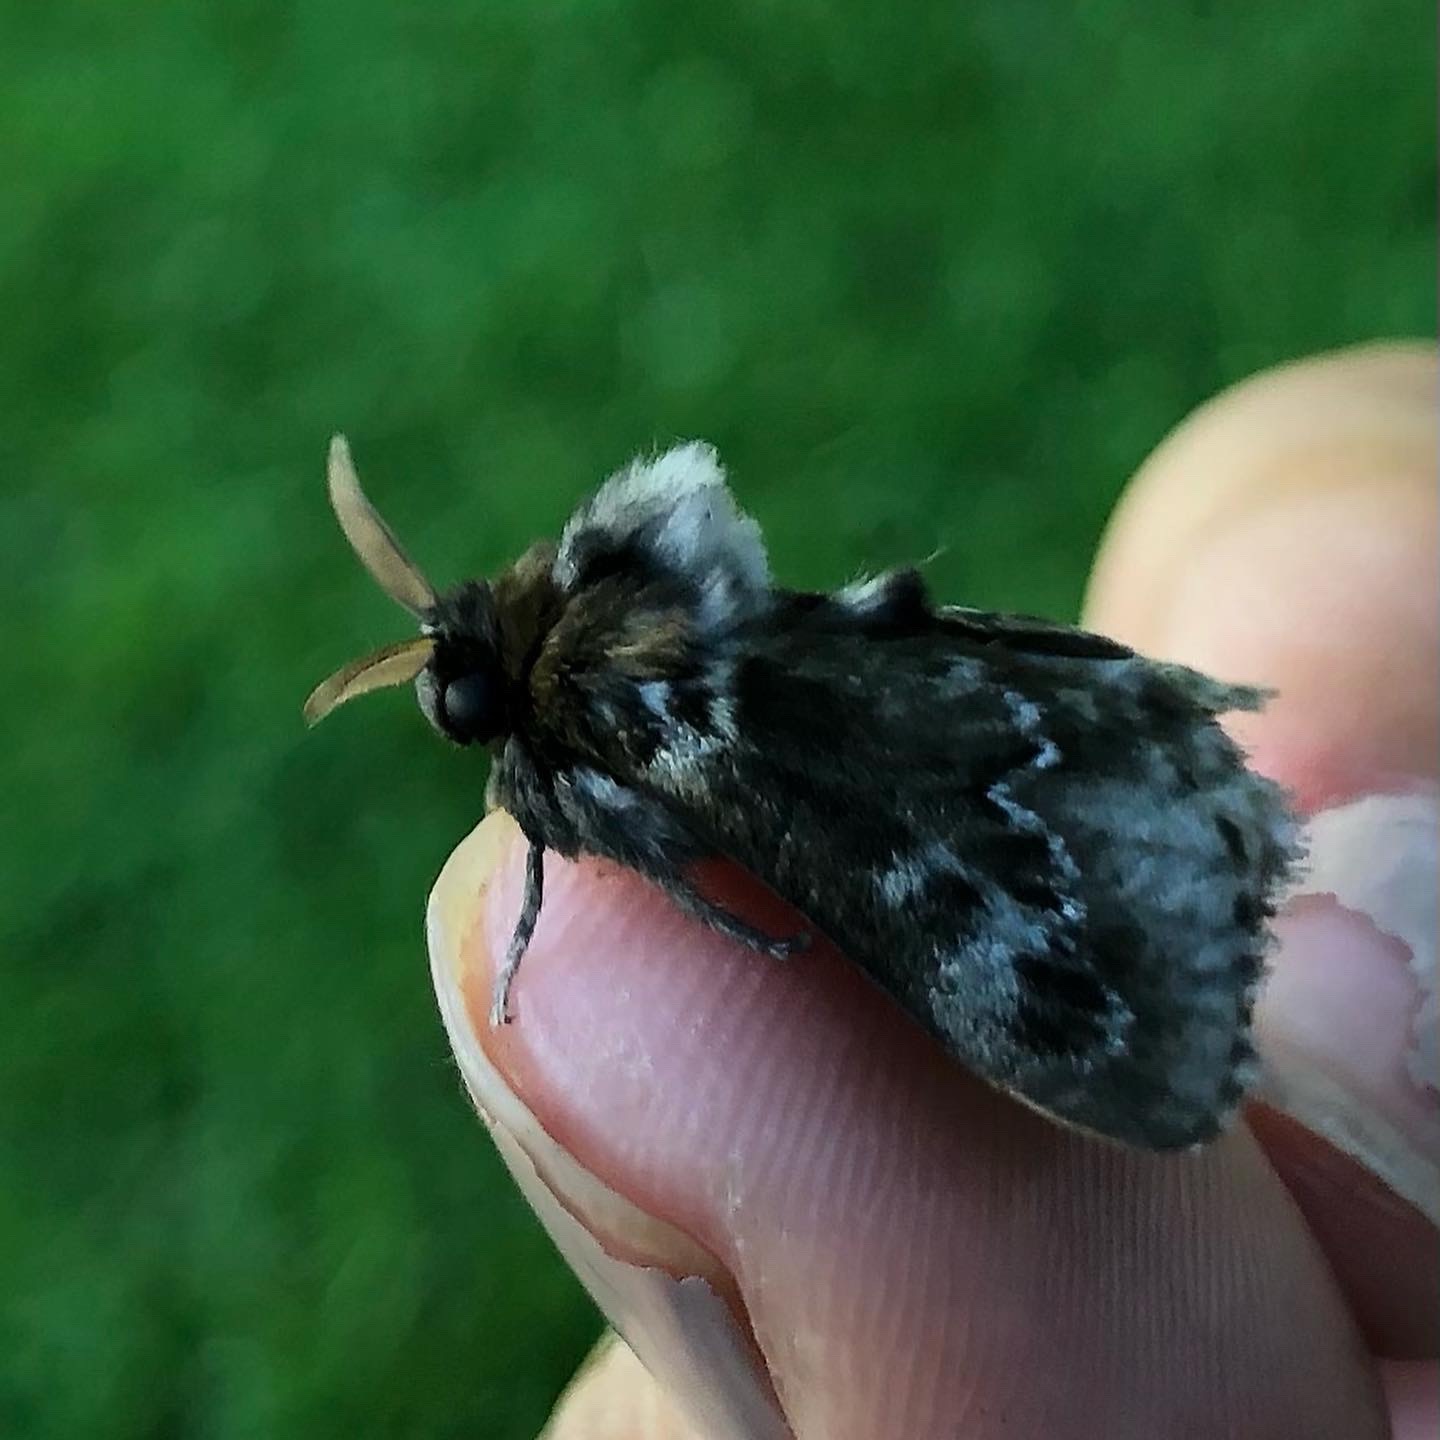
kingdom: Animalia
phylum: Arthropoda
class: Insecta
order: Lepidoptera
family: Megalopygidae
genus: Podalia
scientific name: Podalia habitus
